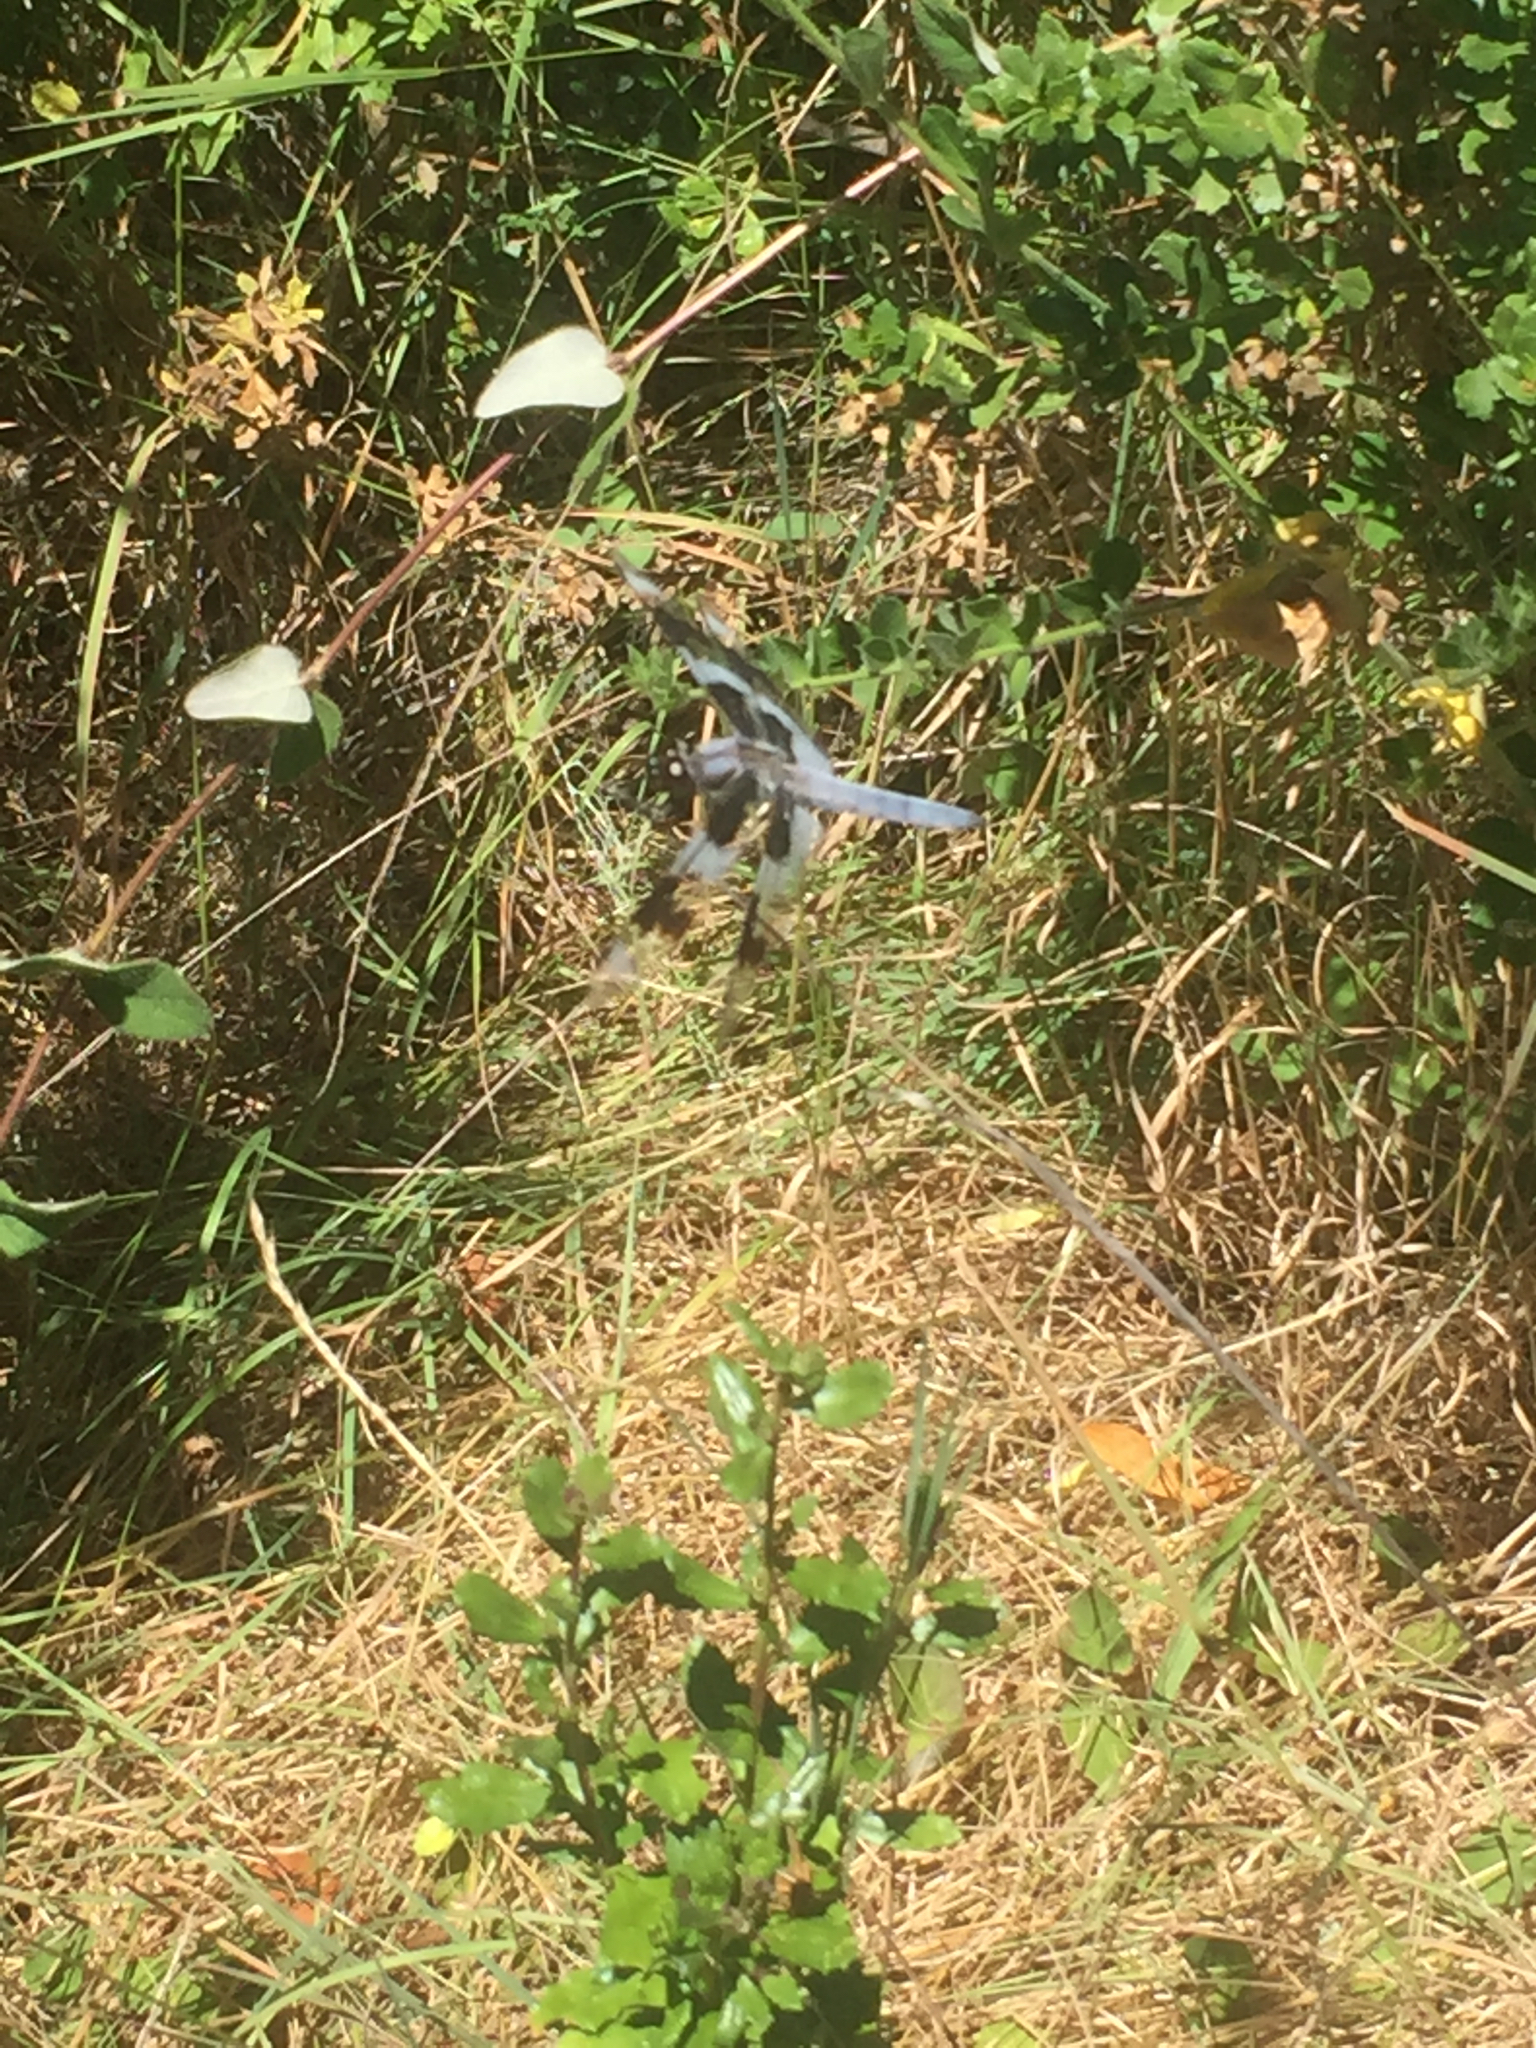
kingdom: Animalia
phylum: Arthropoda
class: Insecta
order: Odonata
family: Libellulidae
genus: Libellula
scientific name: Libellula forensis
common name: Eight-spotted skimmer
